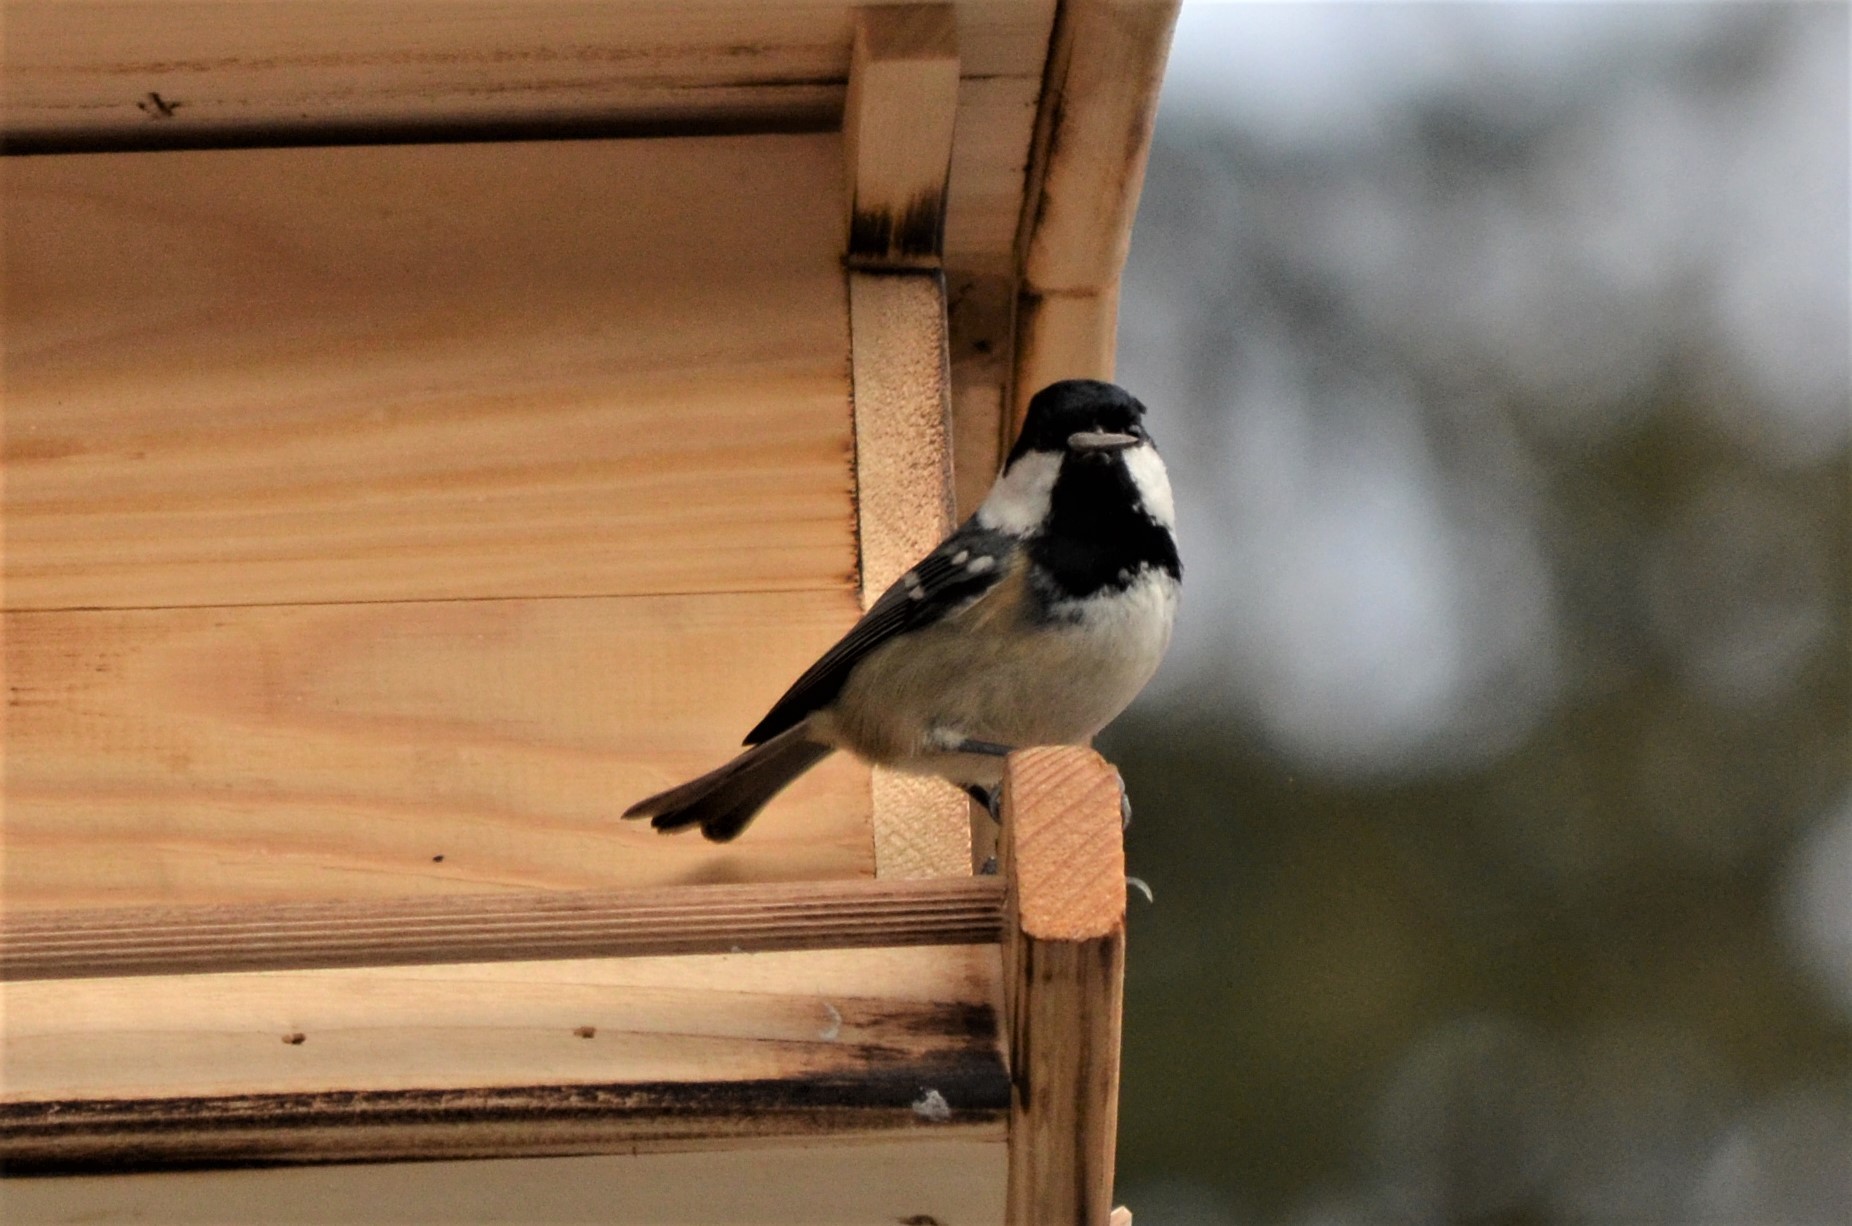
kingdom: Animalia
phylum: Chordata
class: Aves
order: Passeriformes
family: Paridae
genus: Periparus
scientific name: Periparus ater
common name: Coal tit
